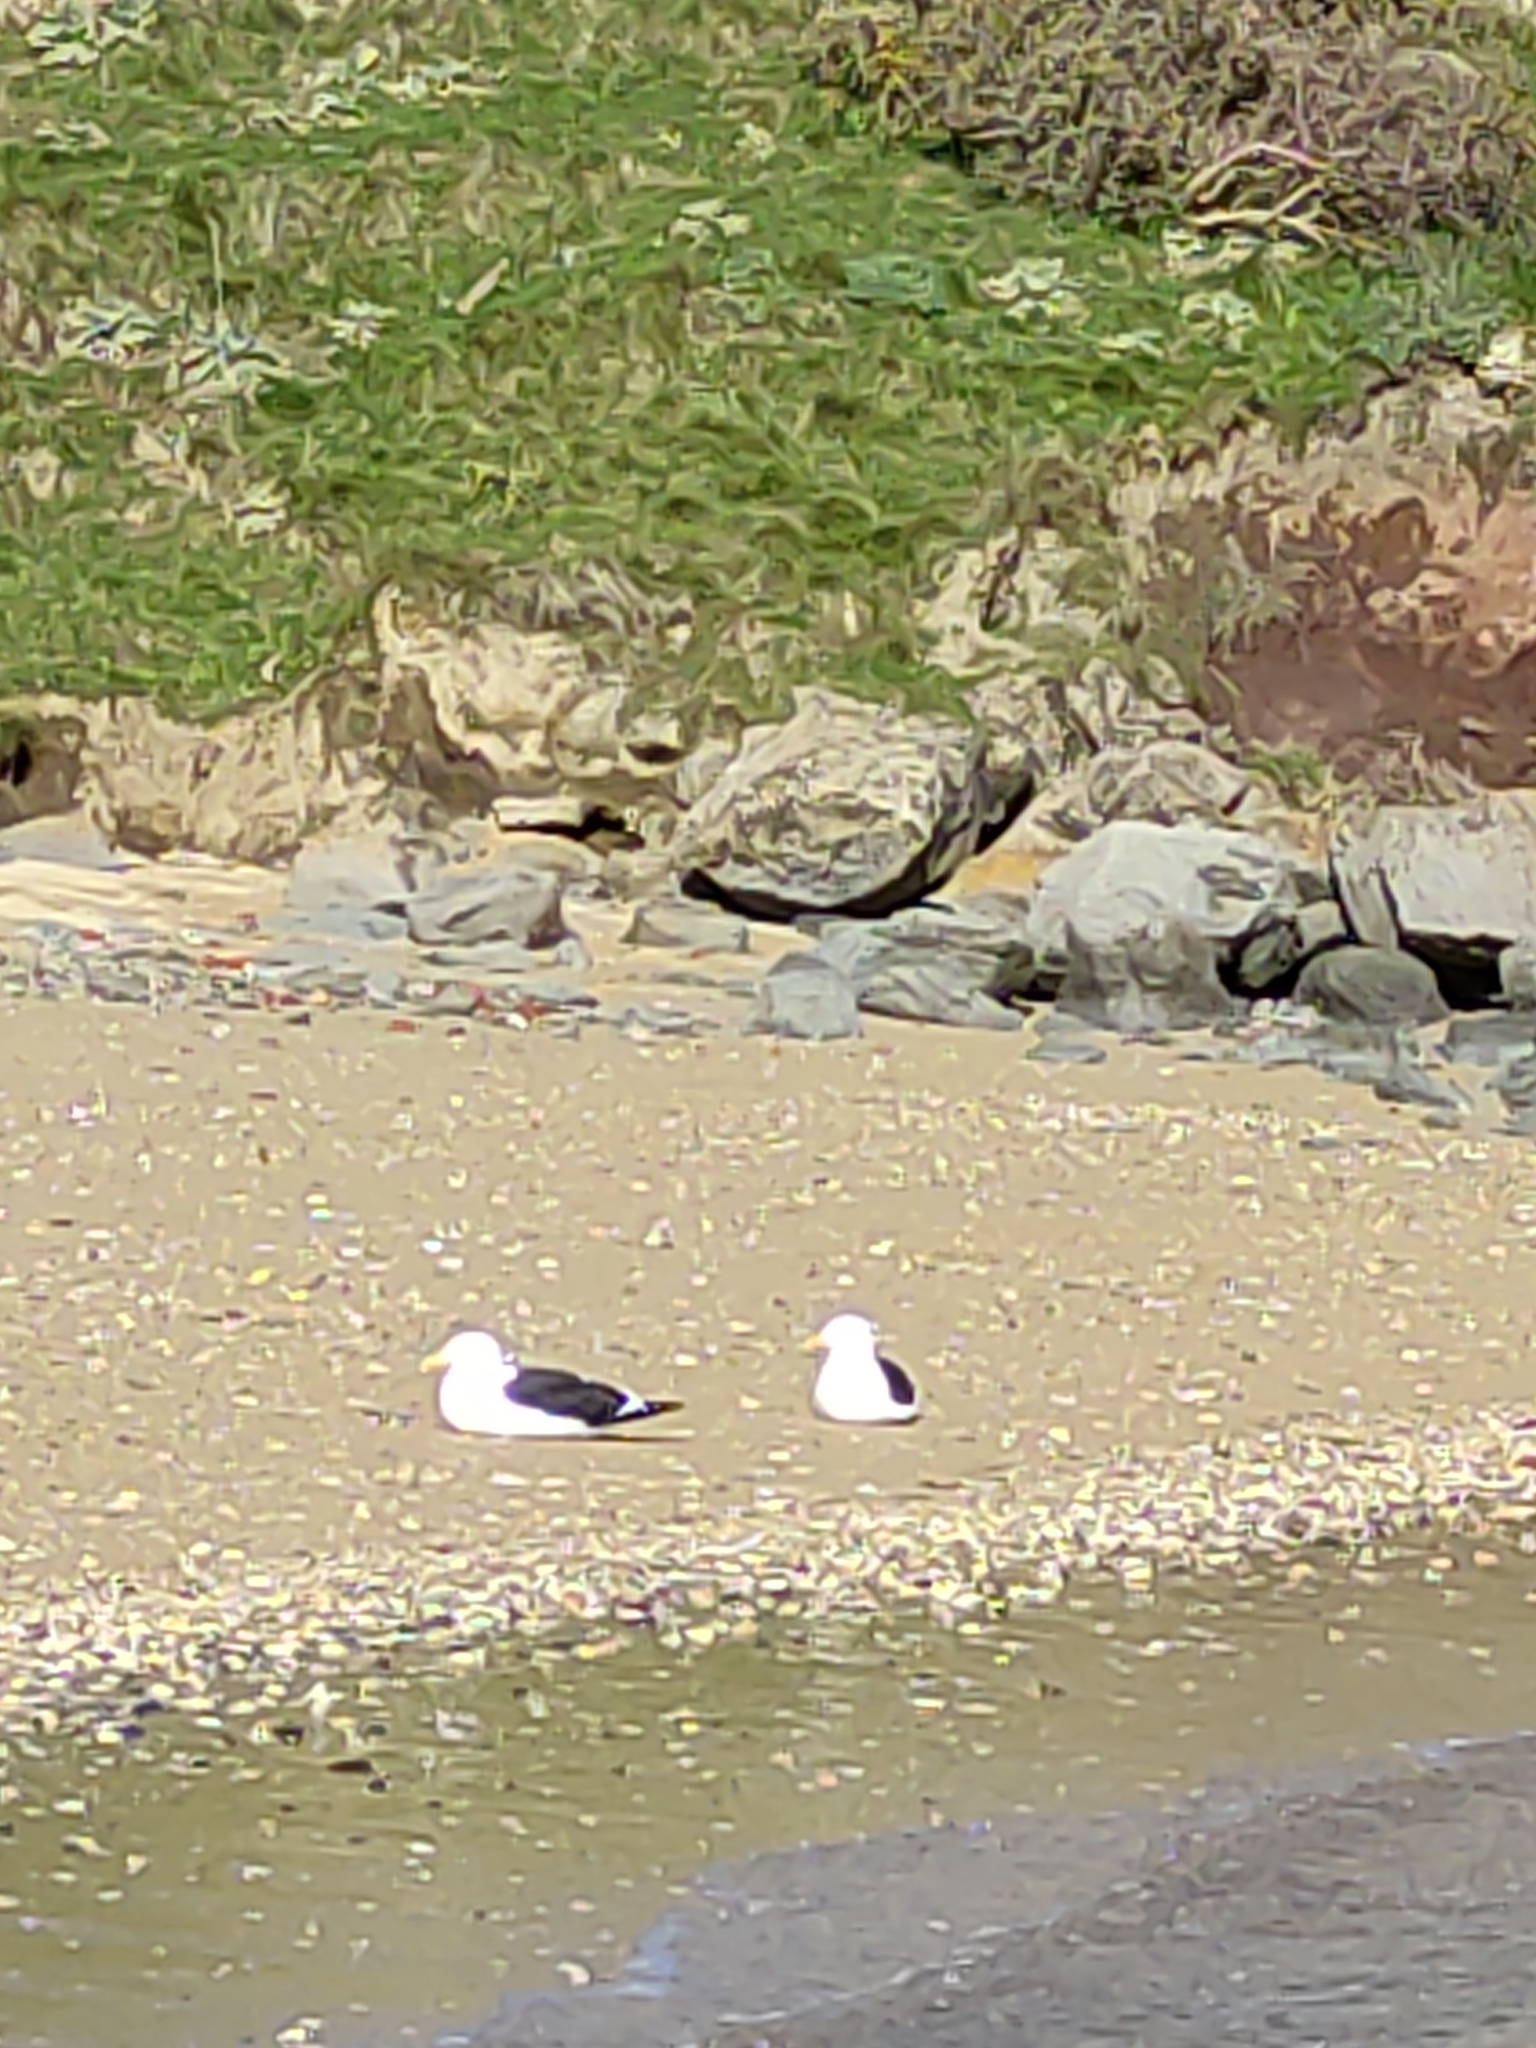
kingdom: Animalia
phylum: Chordata
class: Aves
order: Charadriiformes
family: Laridae
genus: Larus
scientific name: Larus dominicanus
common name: Kelp gull
